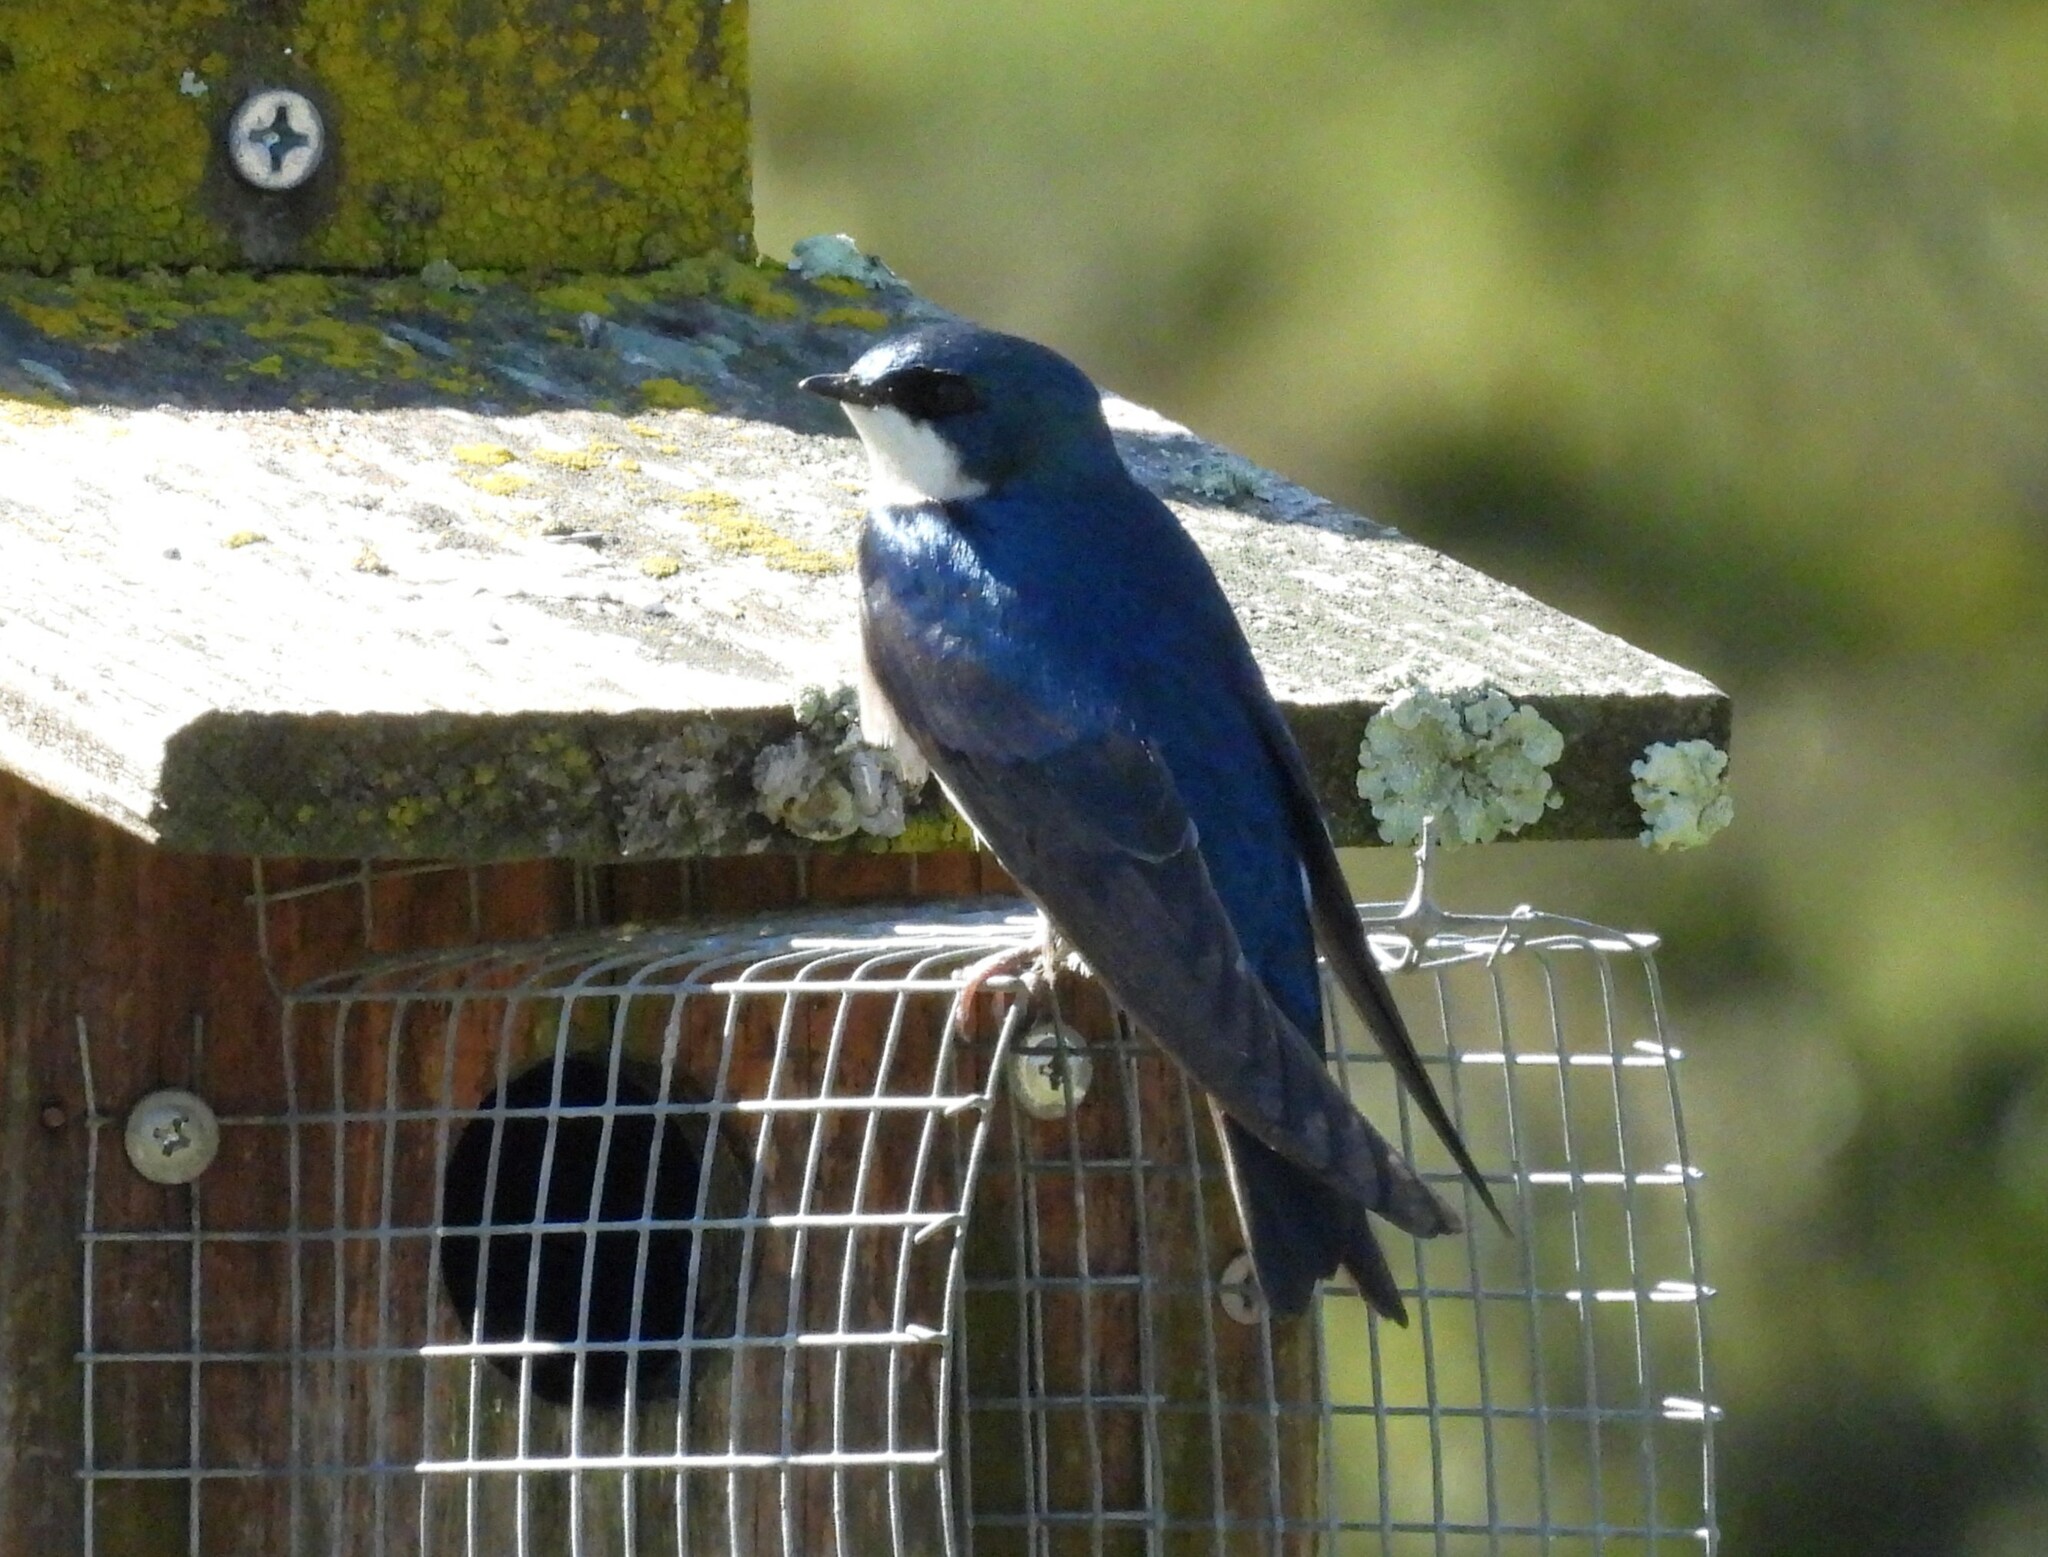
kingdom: Animalia
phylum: Chordata
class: Aves
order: Passeriformes
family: Hirundinidae
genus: Tachycineta
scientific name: Tachycineta bicolor
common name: Tree swallow
